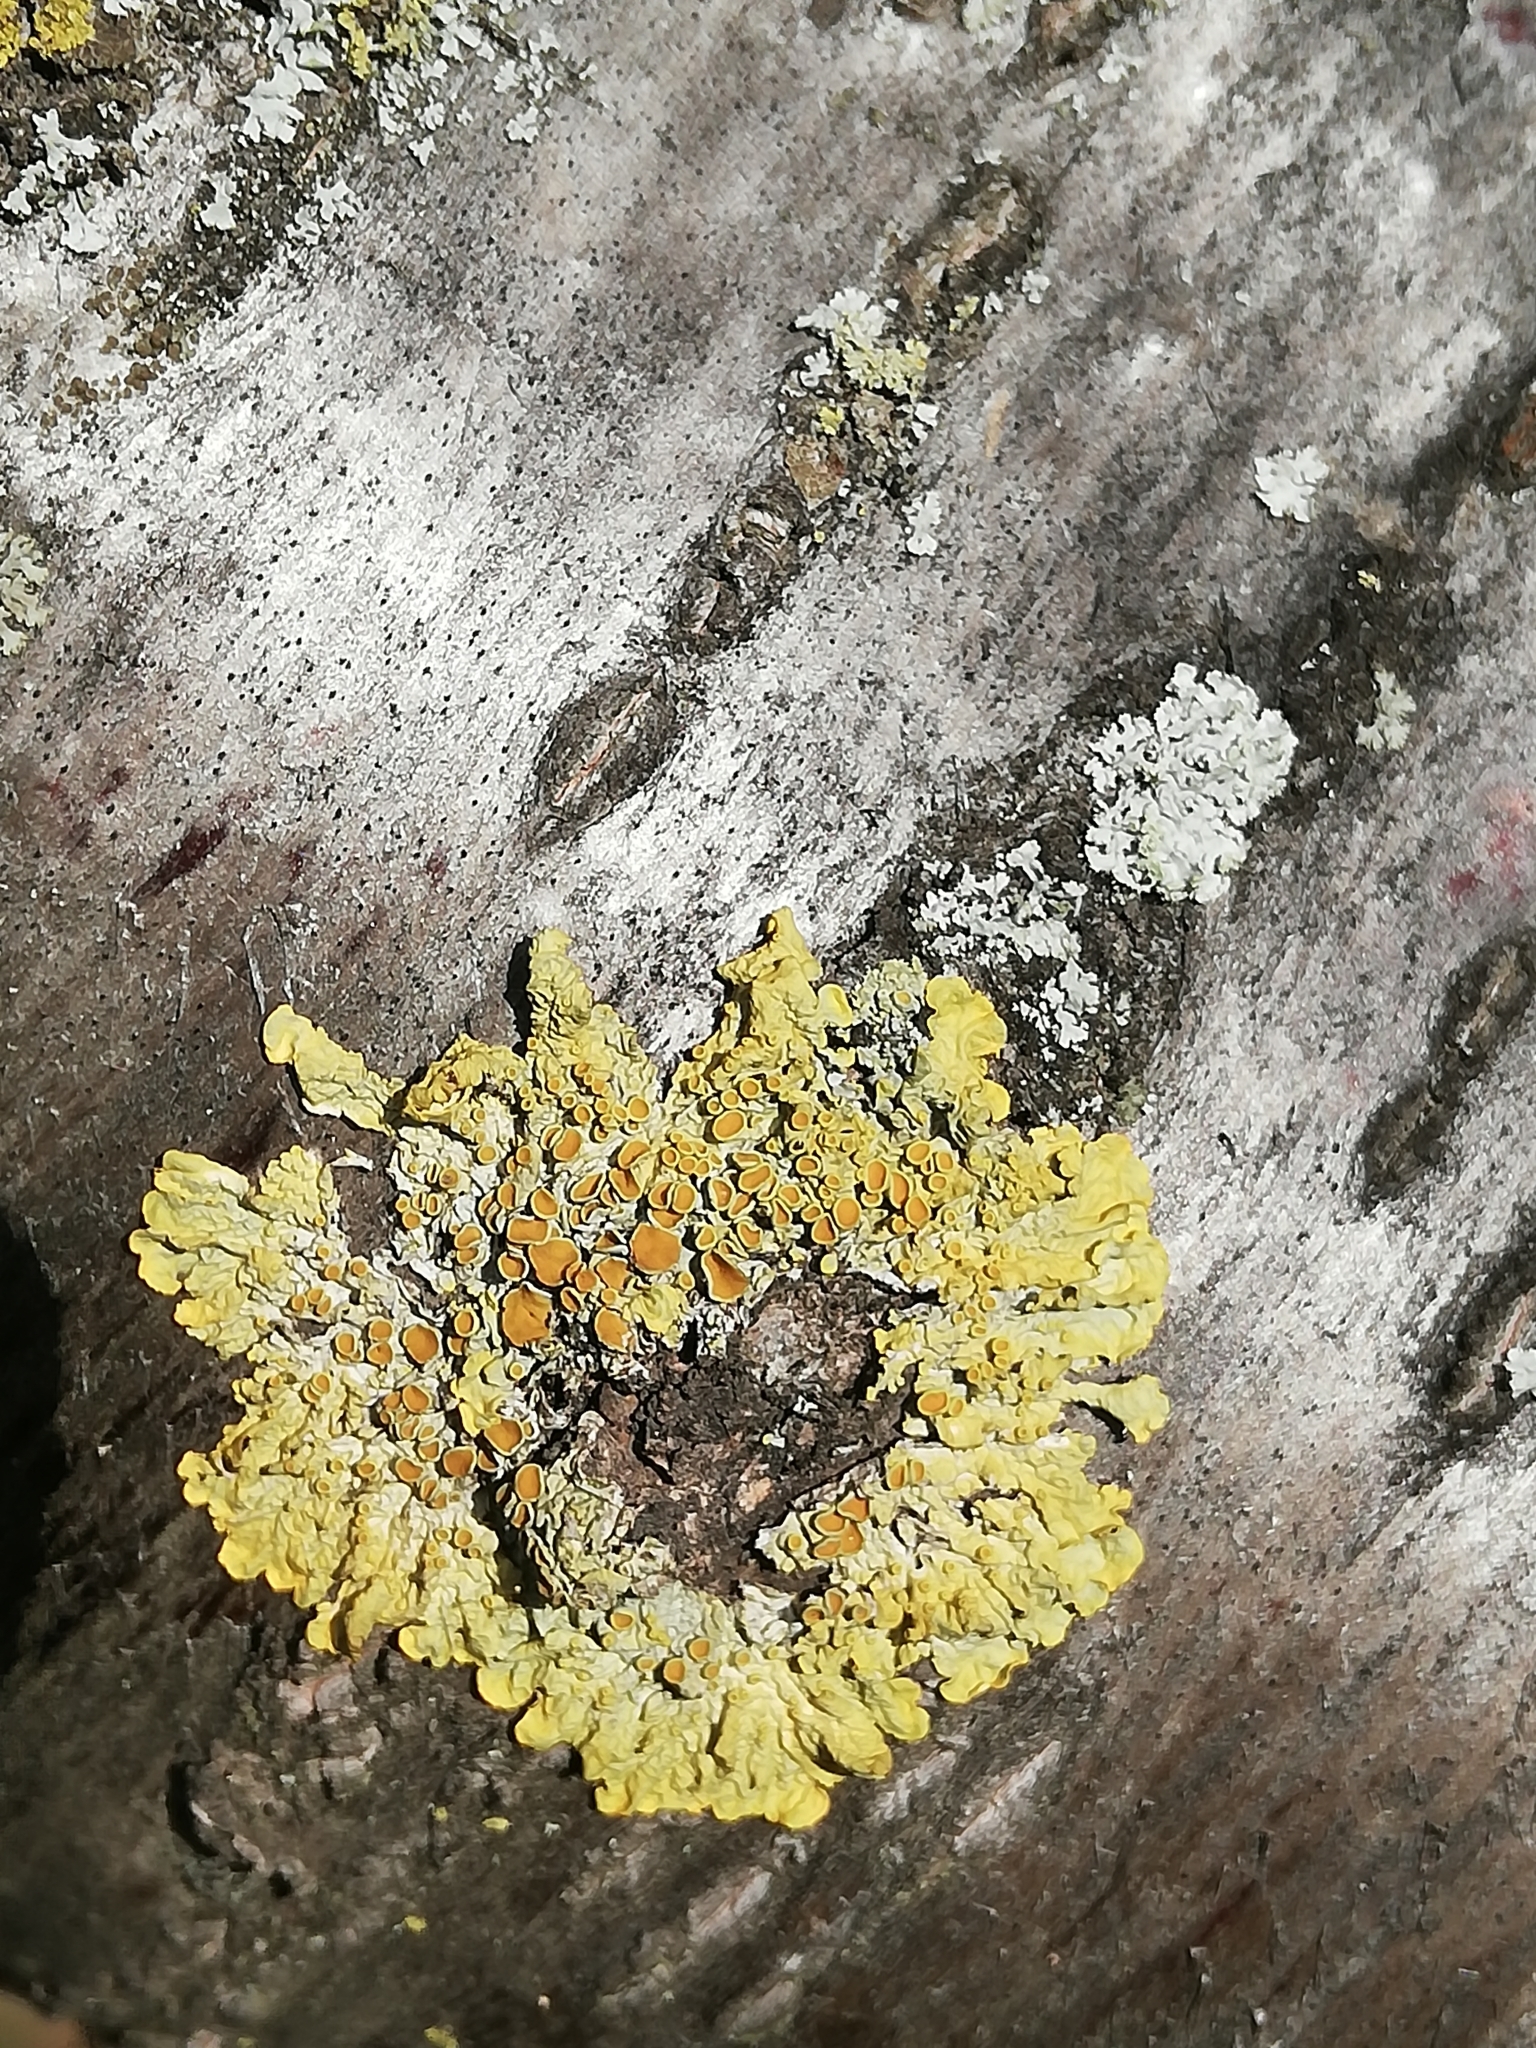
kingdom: Fungi
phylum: Ascomycota
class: Lecanoromycetes
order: Teloschistales
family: Teloschistaceae
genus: Xanthoria
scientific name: Xanthoria parietina
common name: Common orange lichen
